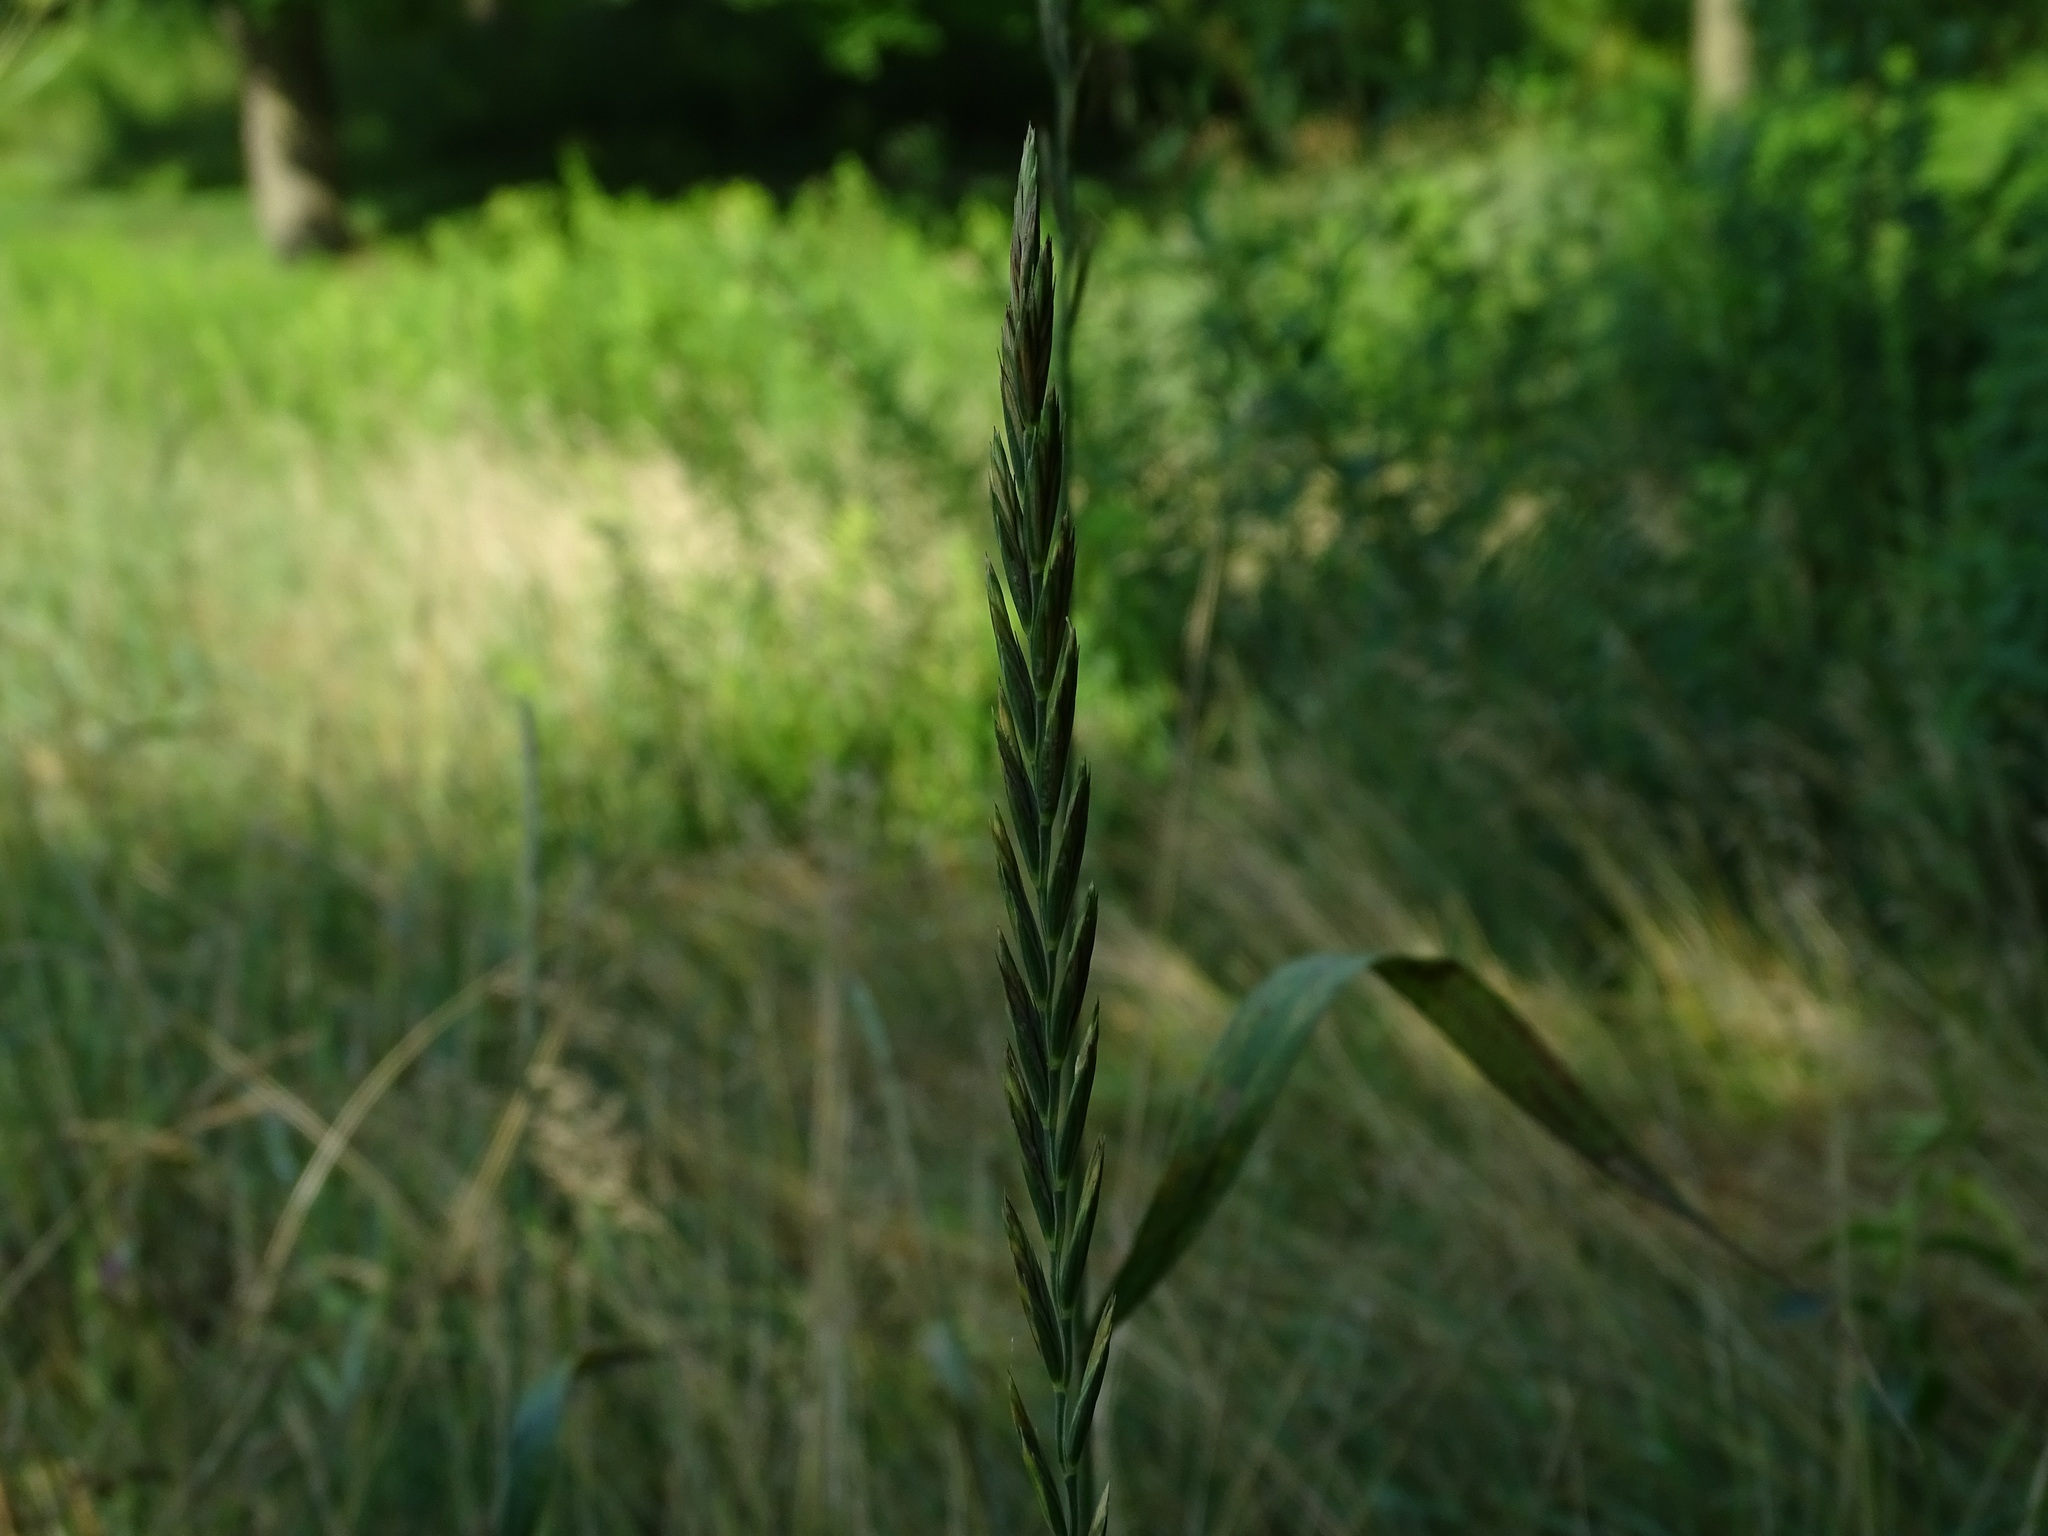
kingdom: Plantae
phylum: Tracheophyta
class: Liliopsida
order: Poales
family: Poaceae
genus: Elymus
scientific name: Elymus repens
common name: Quackgrass
